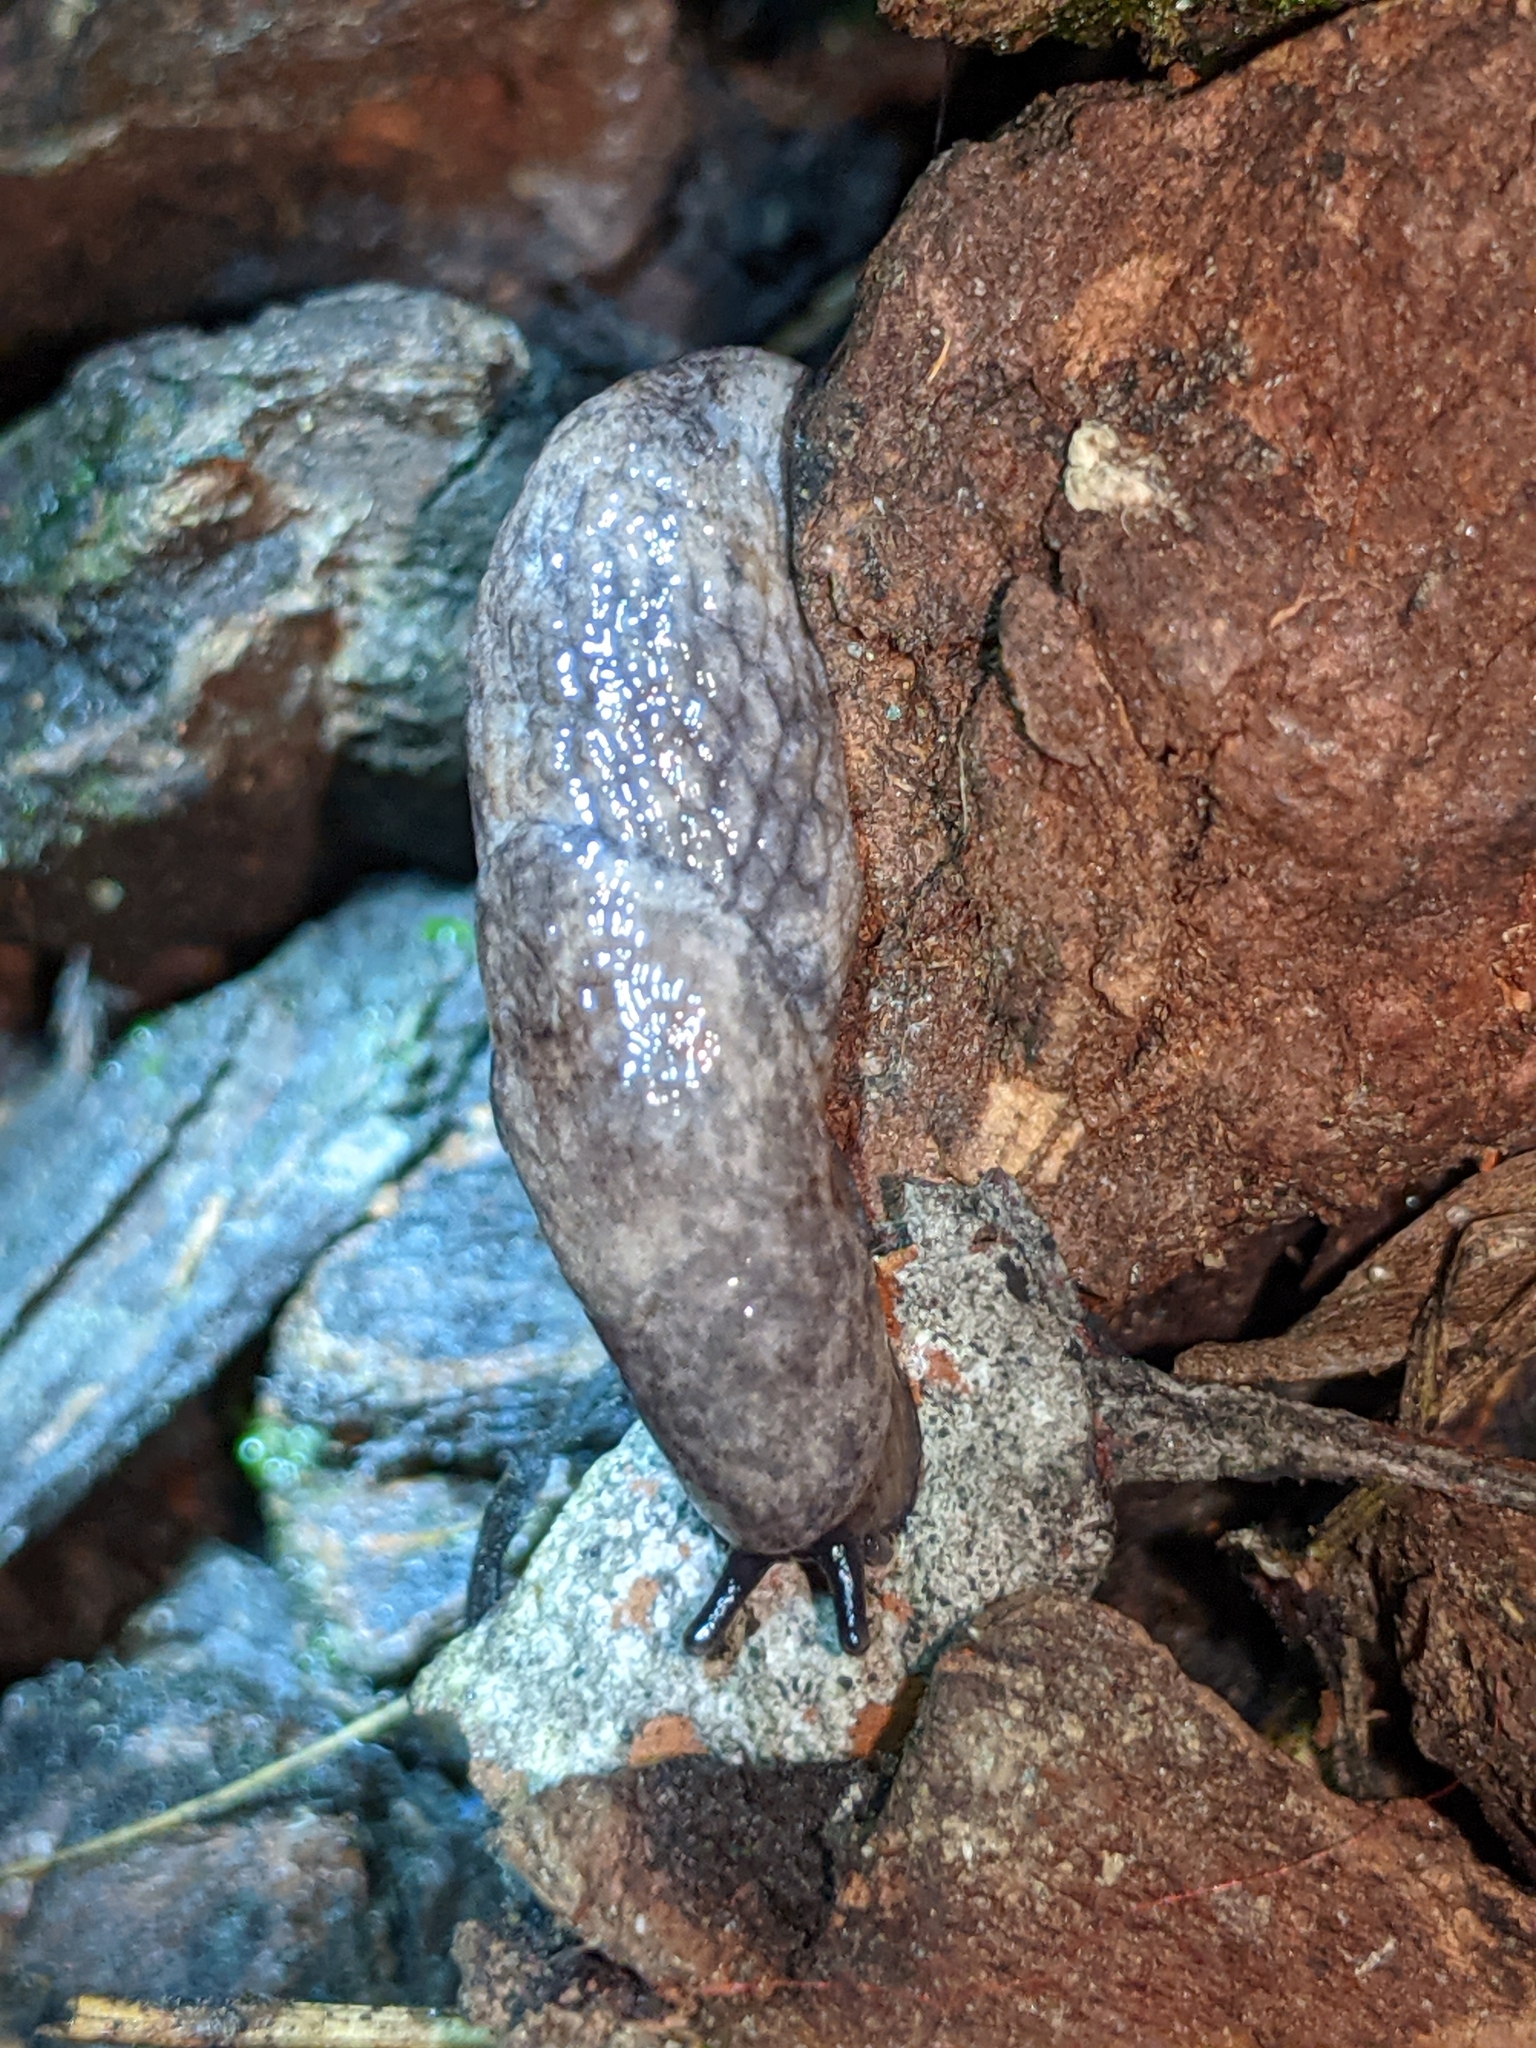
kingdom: Animalia
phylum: Mollusca
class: Gastropoda
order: Stylommatophora
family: Agriolimacidae
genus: Deroceras
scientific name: Deroceras reticulatum
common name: Gray field slug
